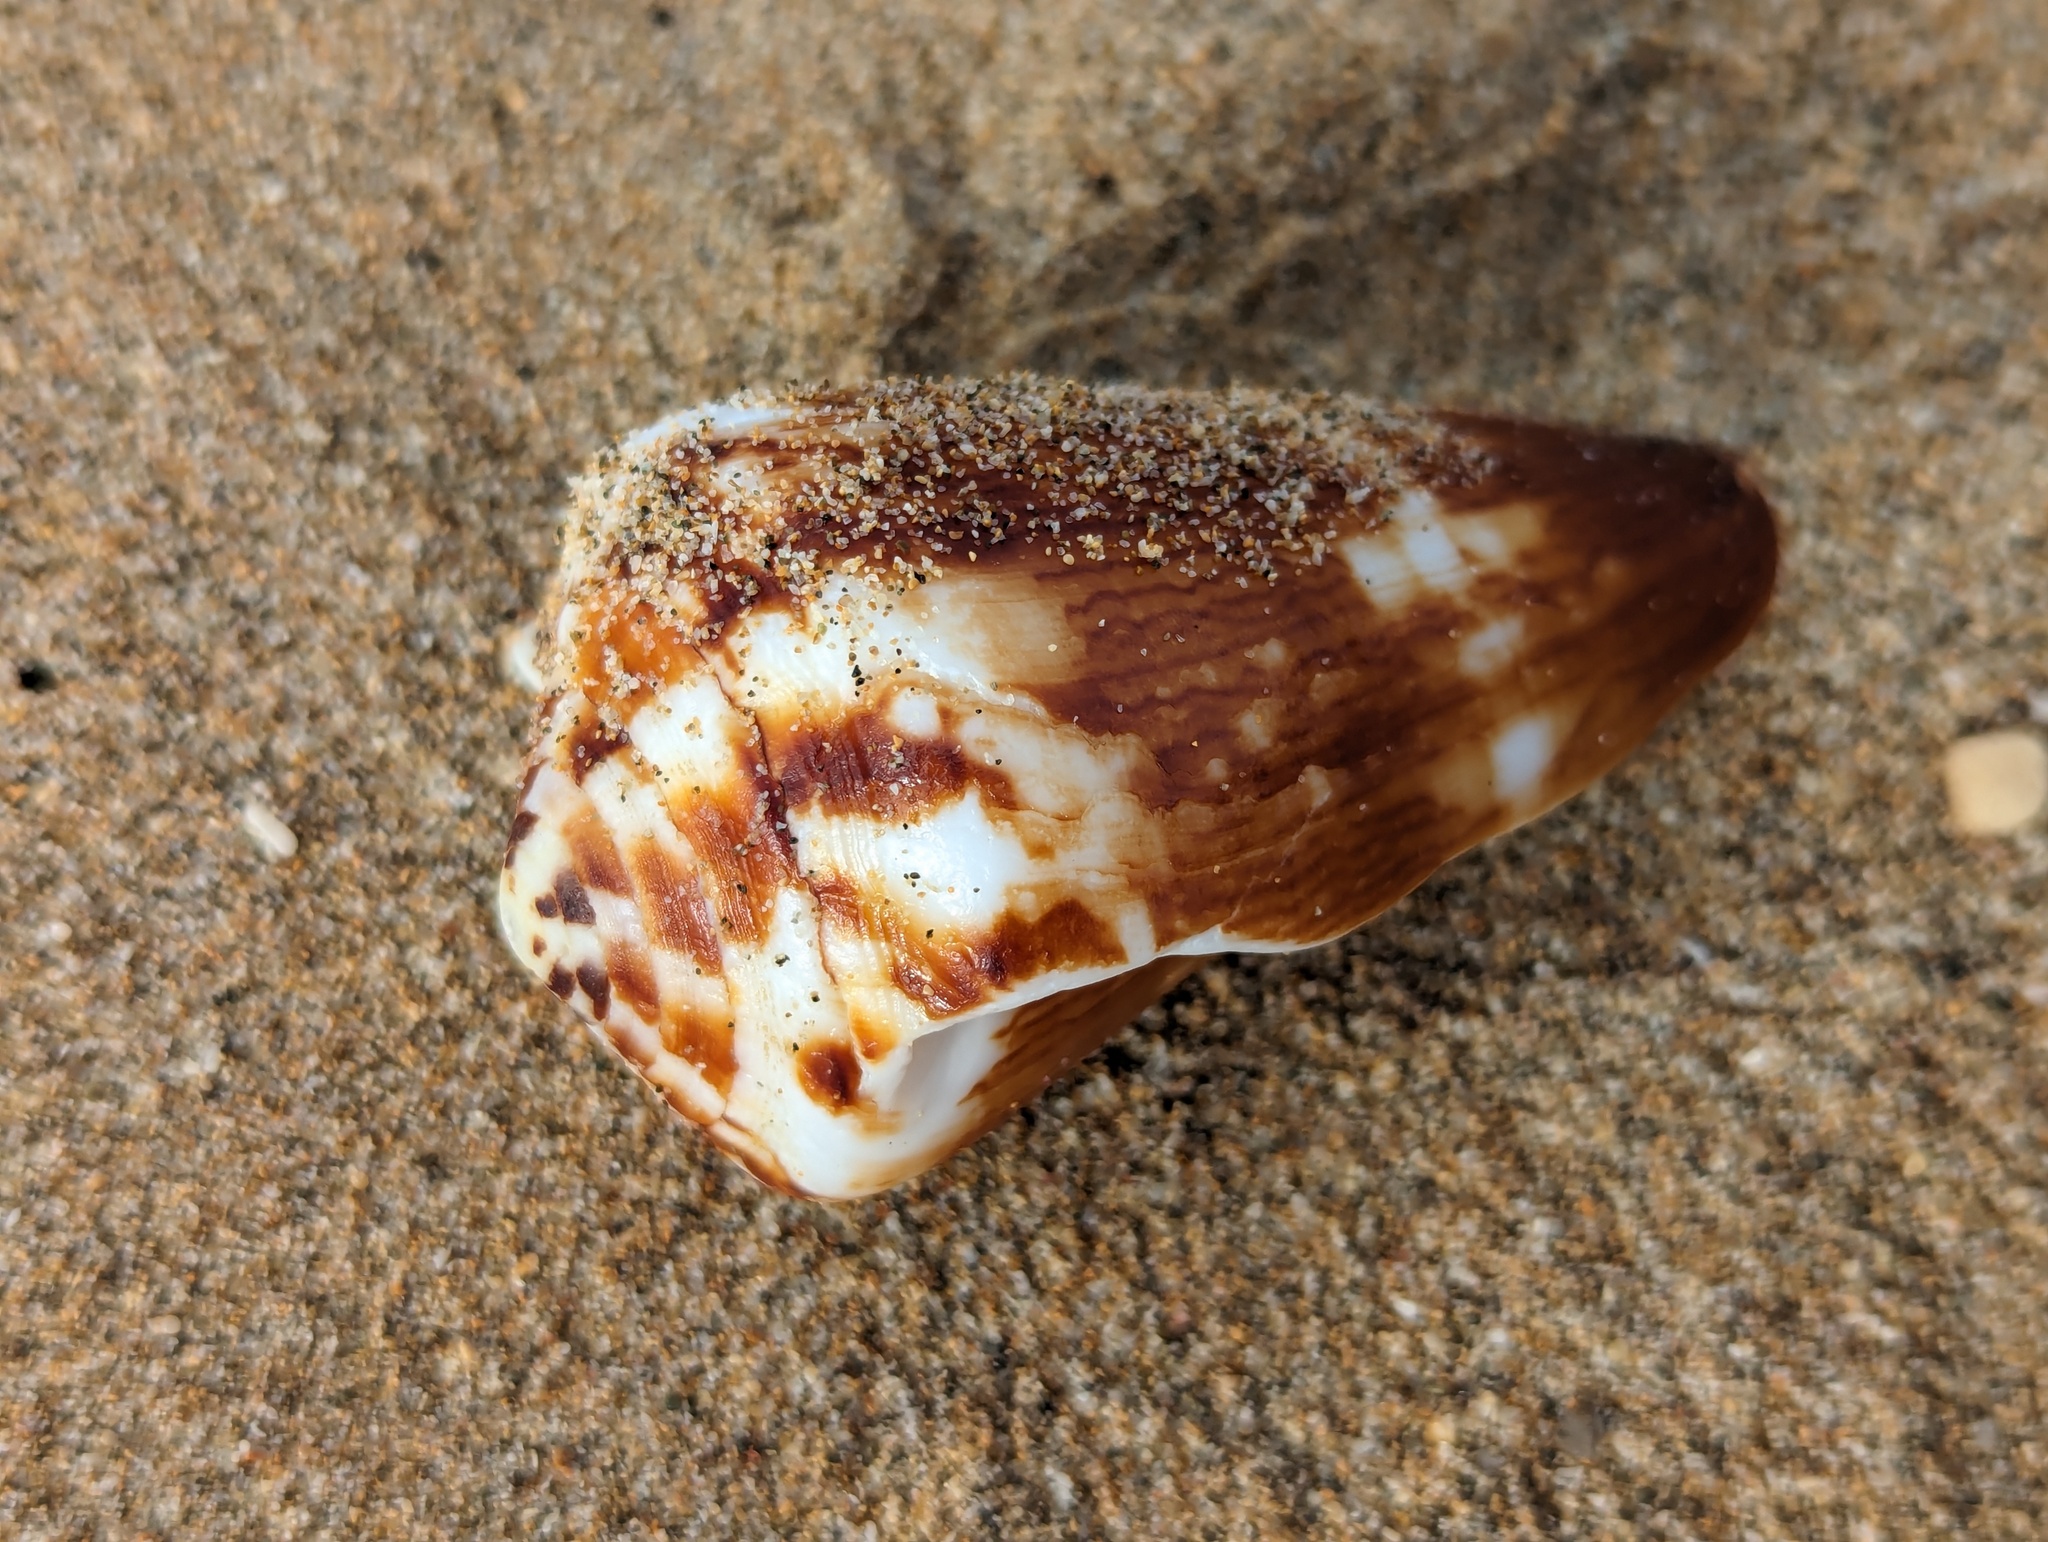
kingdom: Animalia
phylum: Mollusca
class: Gastropoda
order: Neogastropoda
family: Conidae
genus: Conus
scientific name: Conus vexillum
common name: Flag cone
